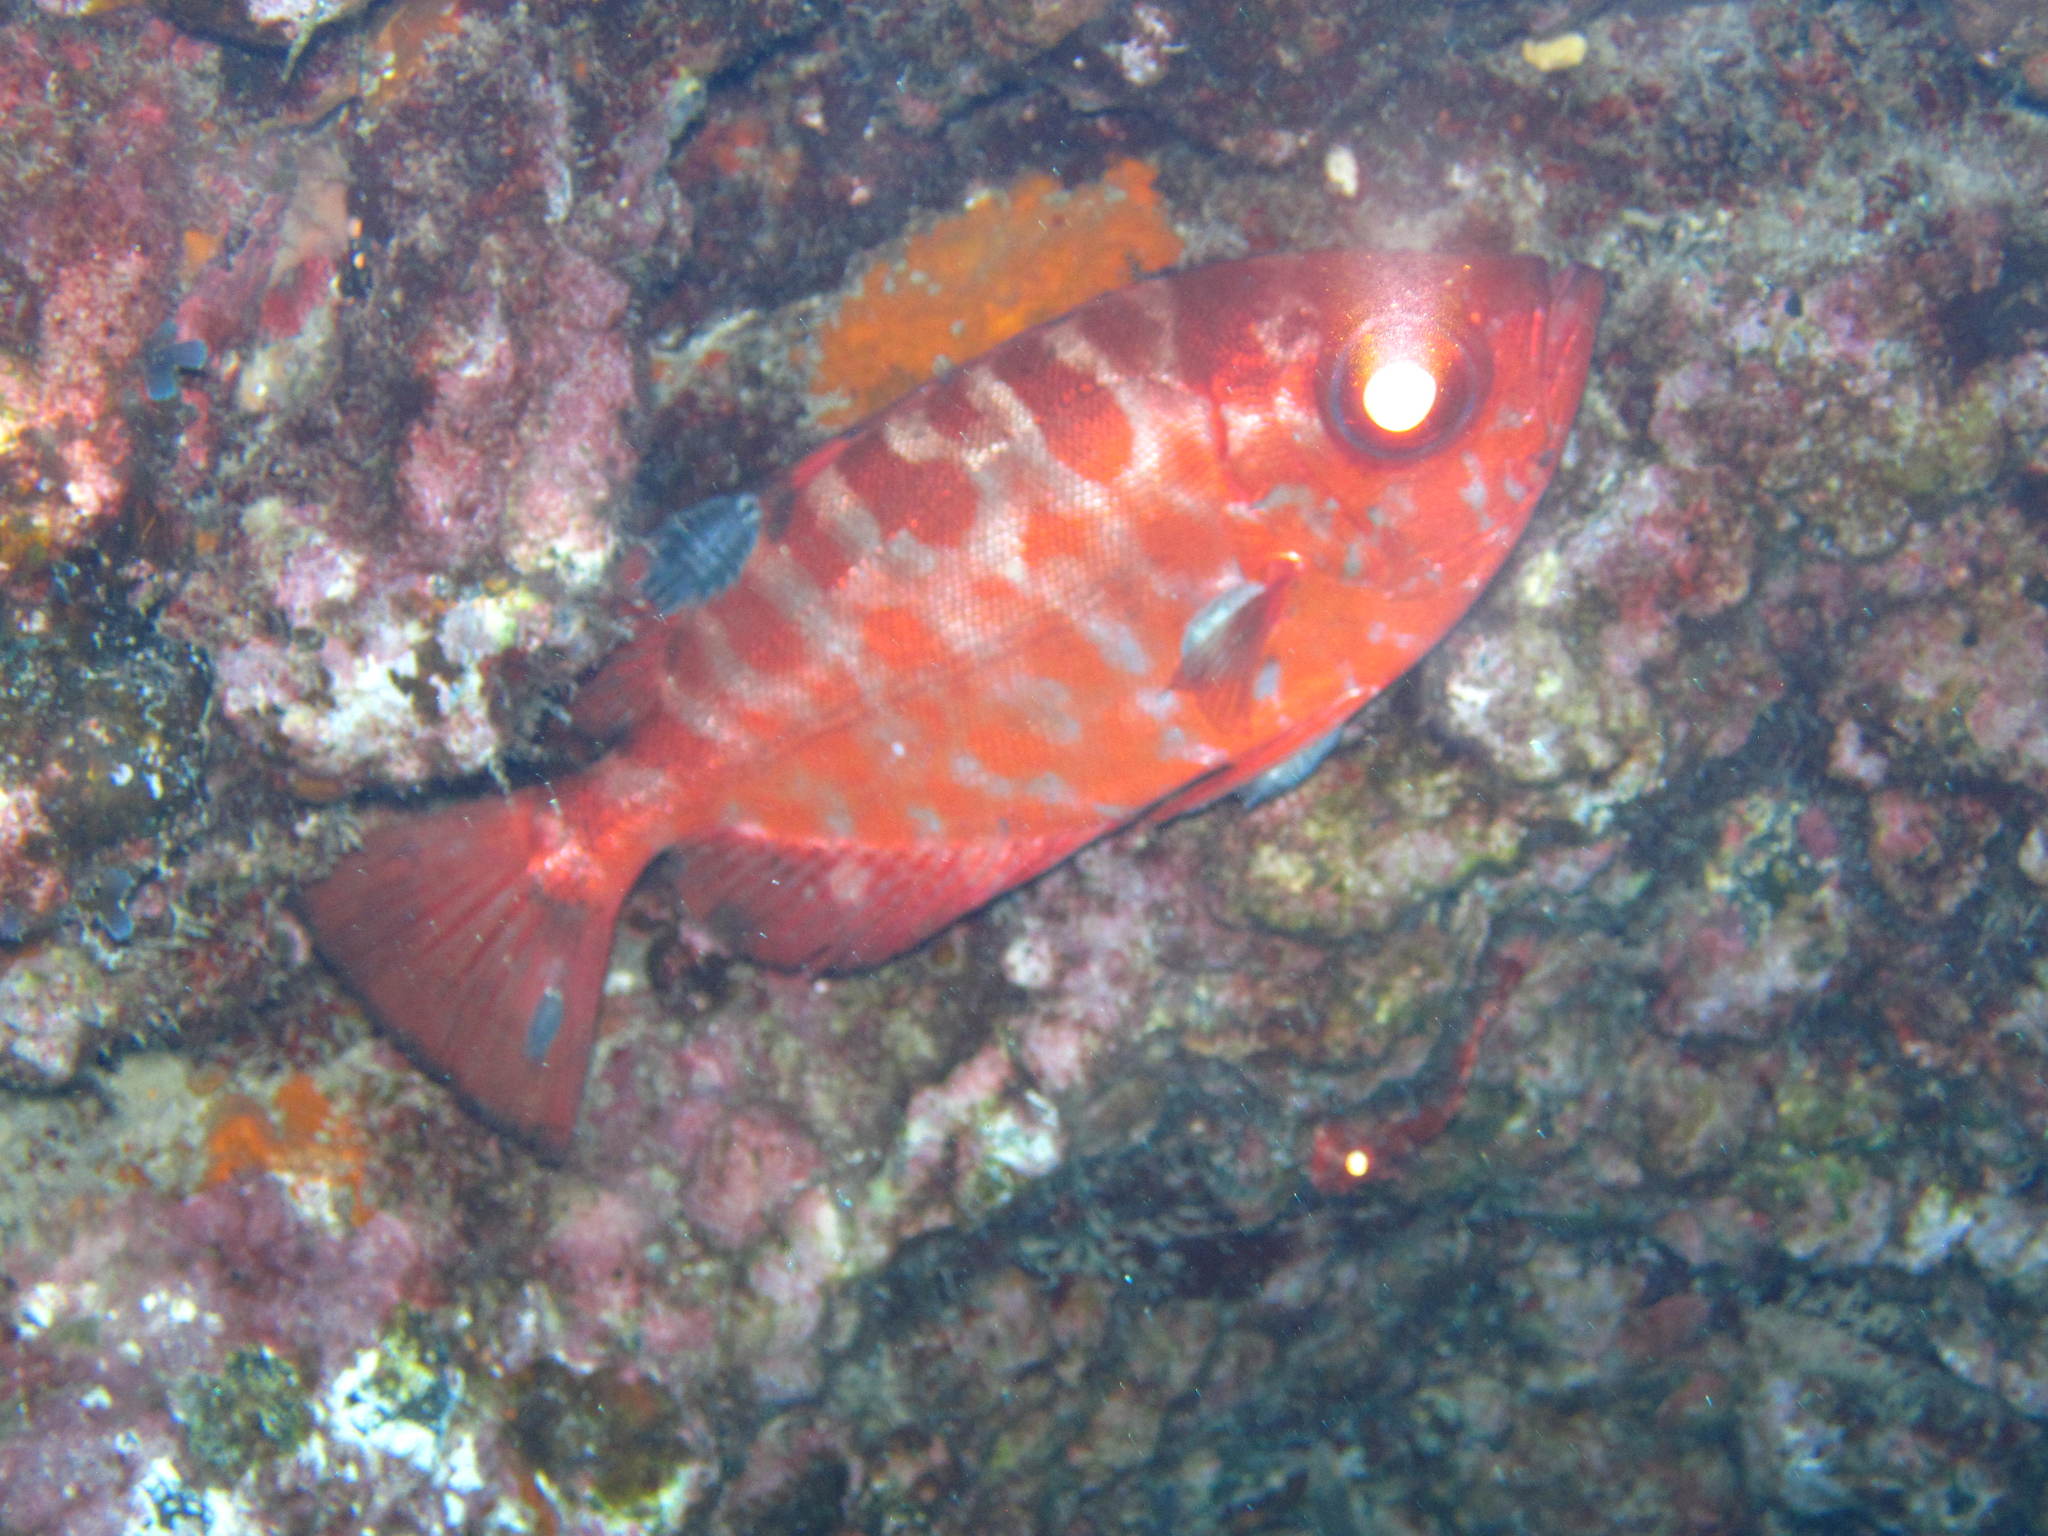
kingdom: Animalia
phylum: Chordata
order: Perciformes
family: Priacanthidae
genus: Heteropriacanthus
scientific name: Heteropriacanthus fulgens
